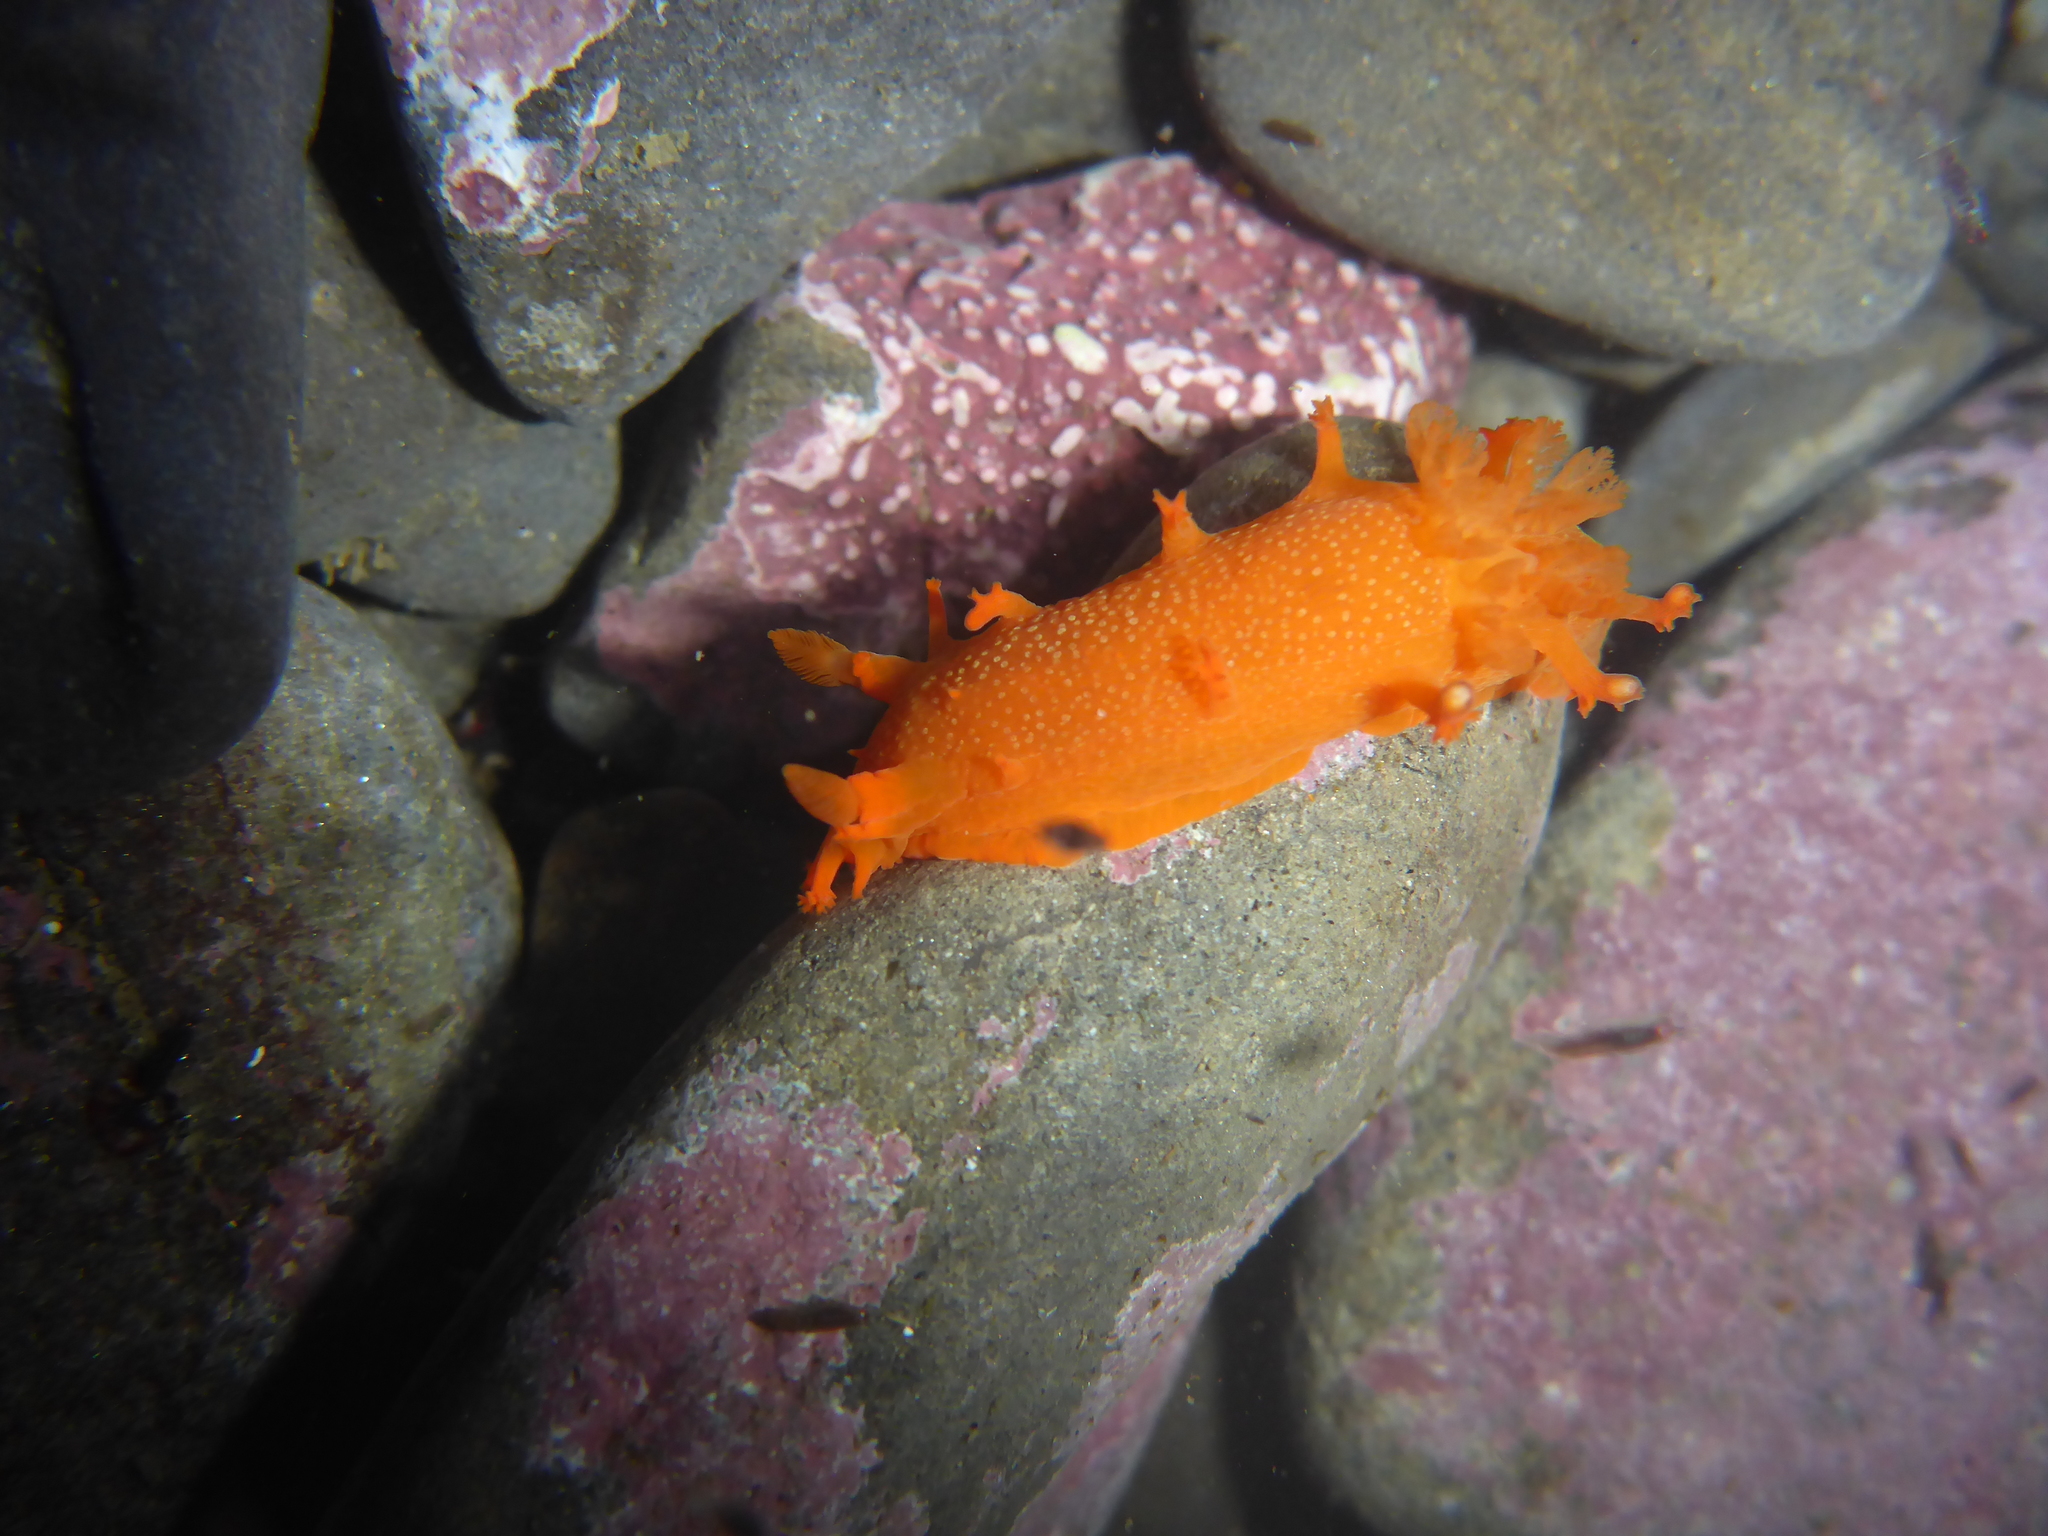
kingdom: Animalia
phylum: Mollusca
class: Gastropoda
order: Nudibranchia
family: Polyceridae
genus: Triopha
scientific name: Triopha maculata
